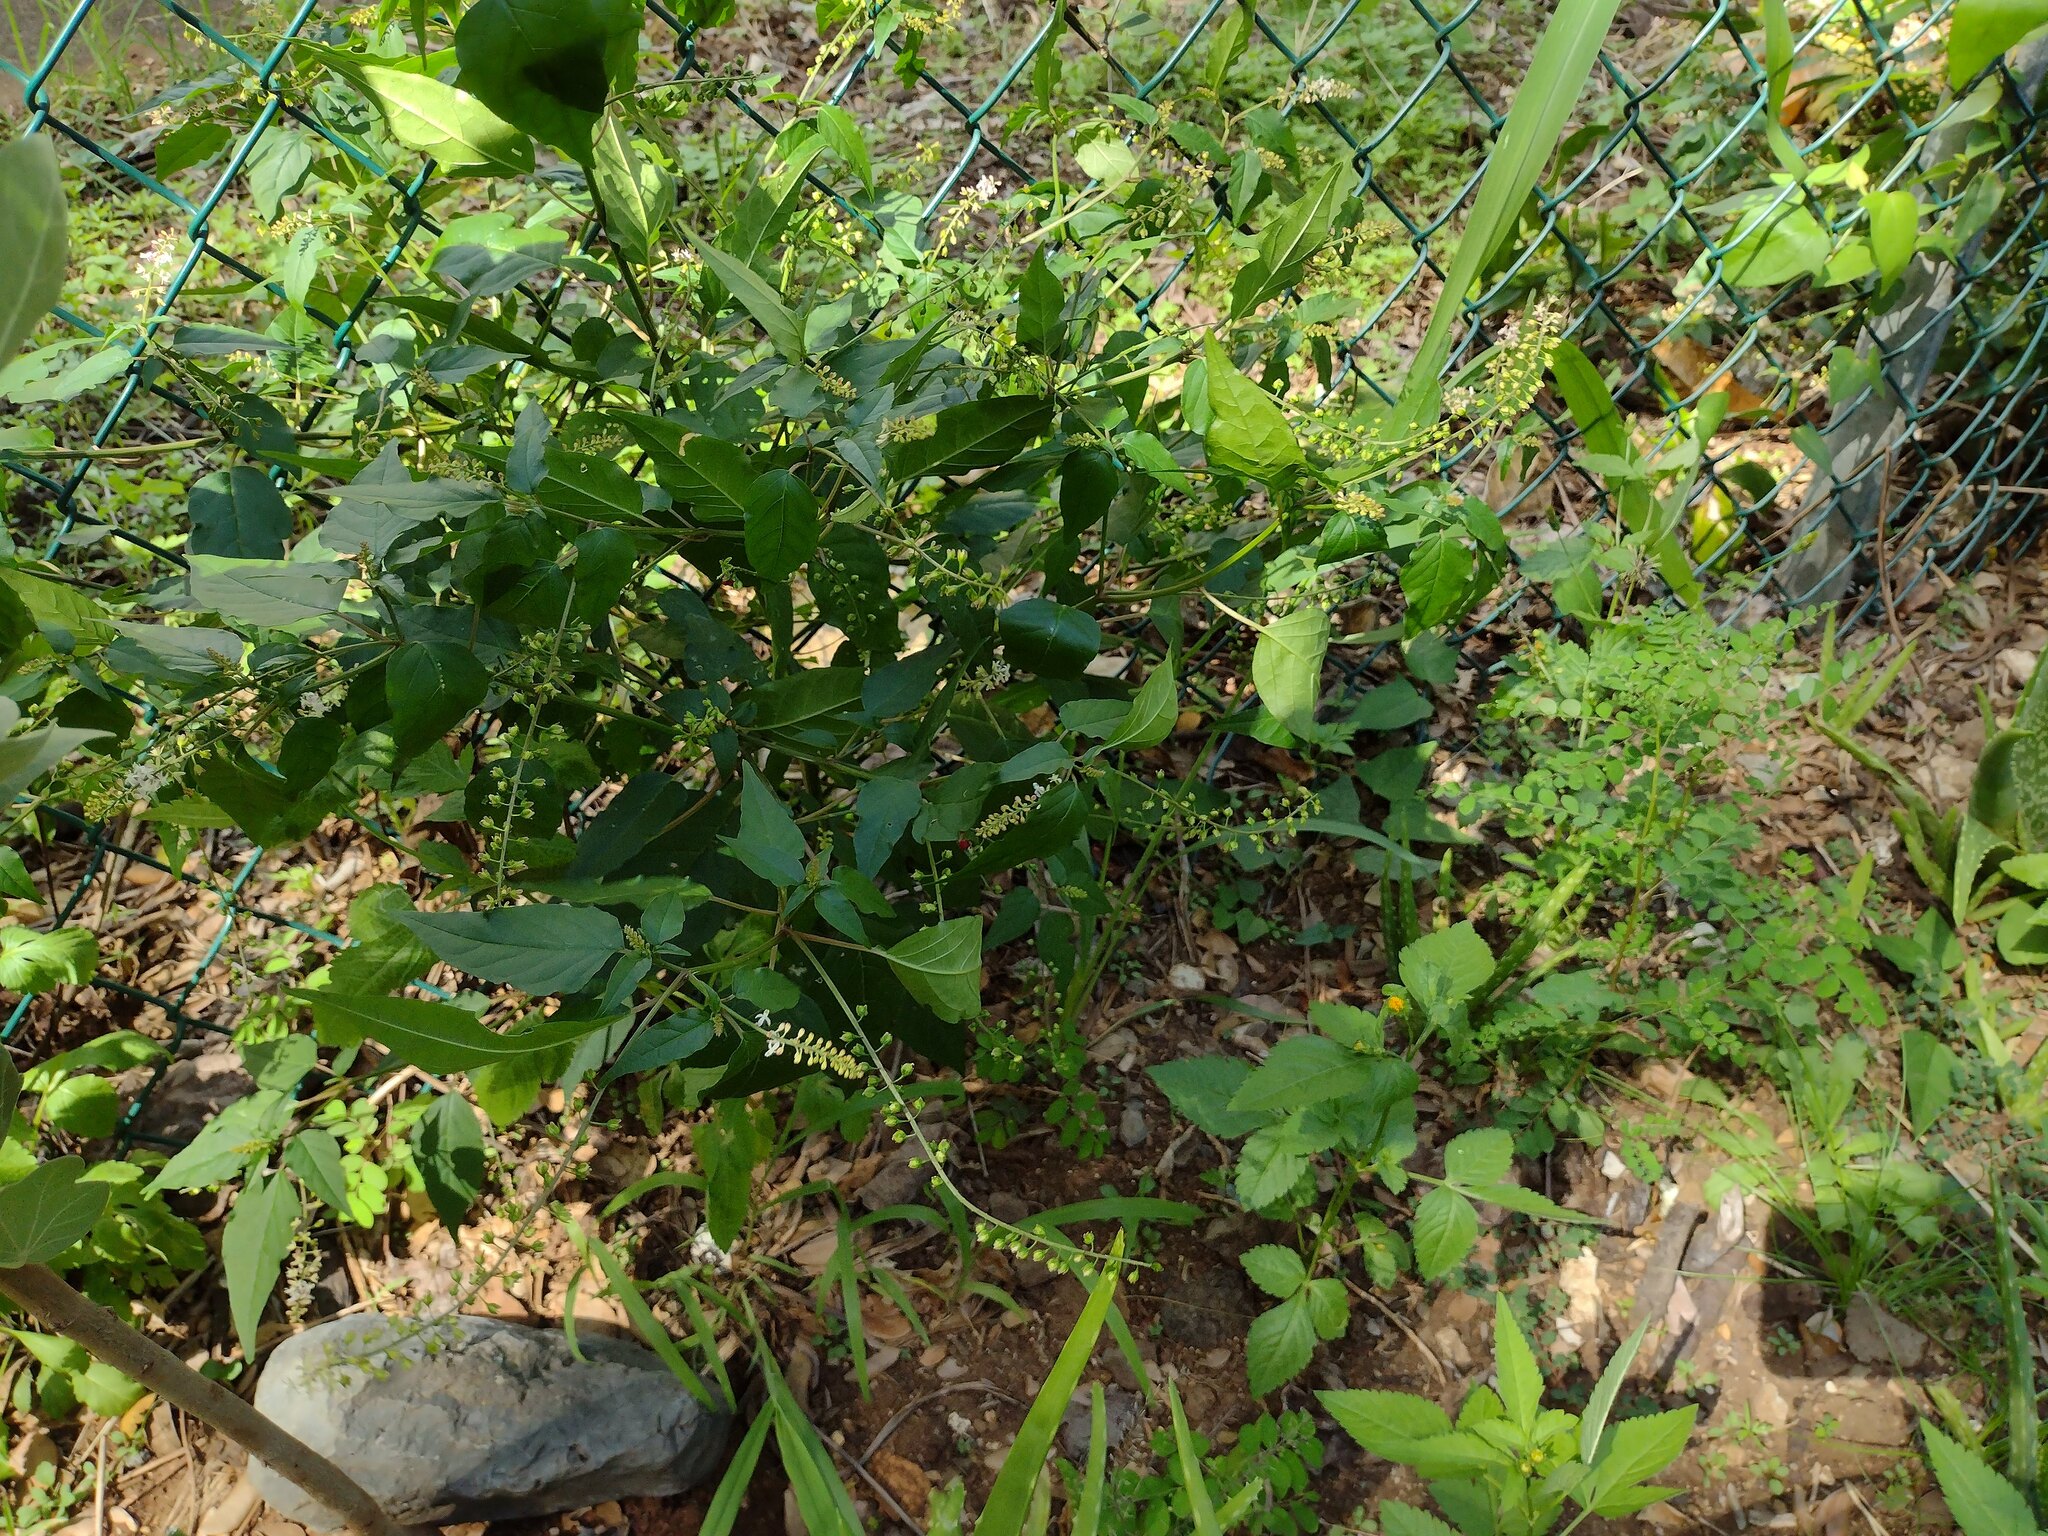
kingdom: Plantae
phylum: Tracheophyta
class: Magnoliopsida
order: Caryophyllales
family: Phytolaccaceae
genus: Rivina
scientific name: Rivina humilis
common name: Rougeplant
